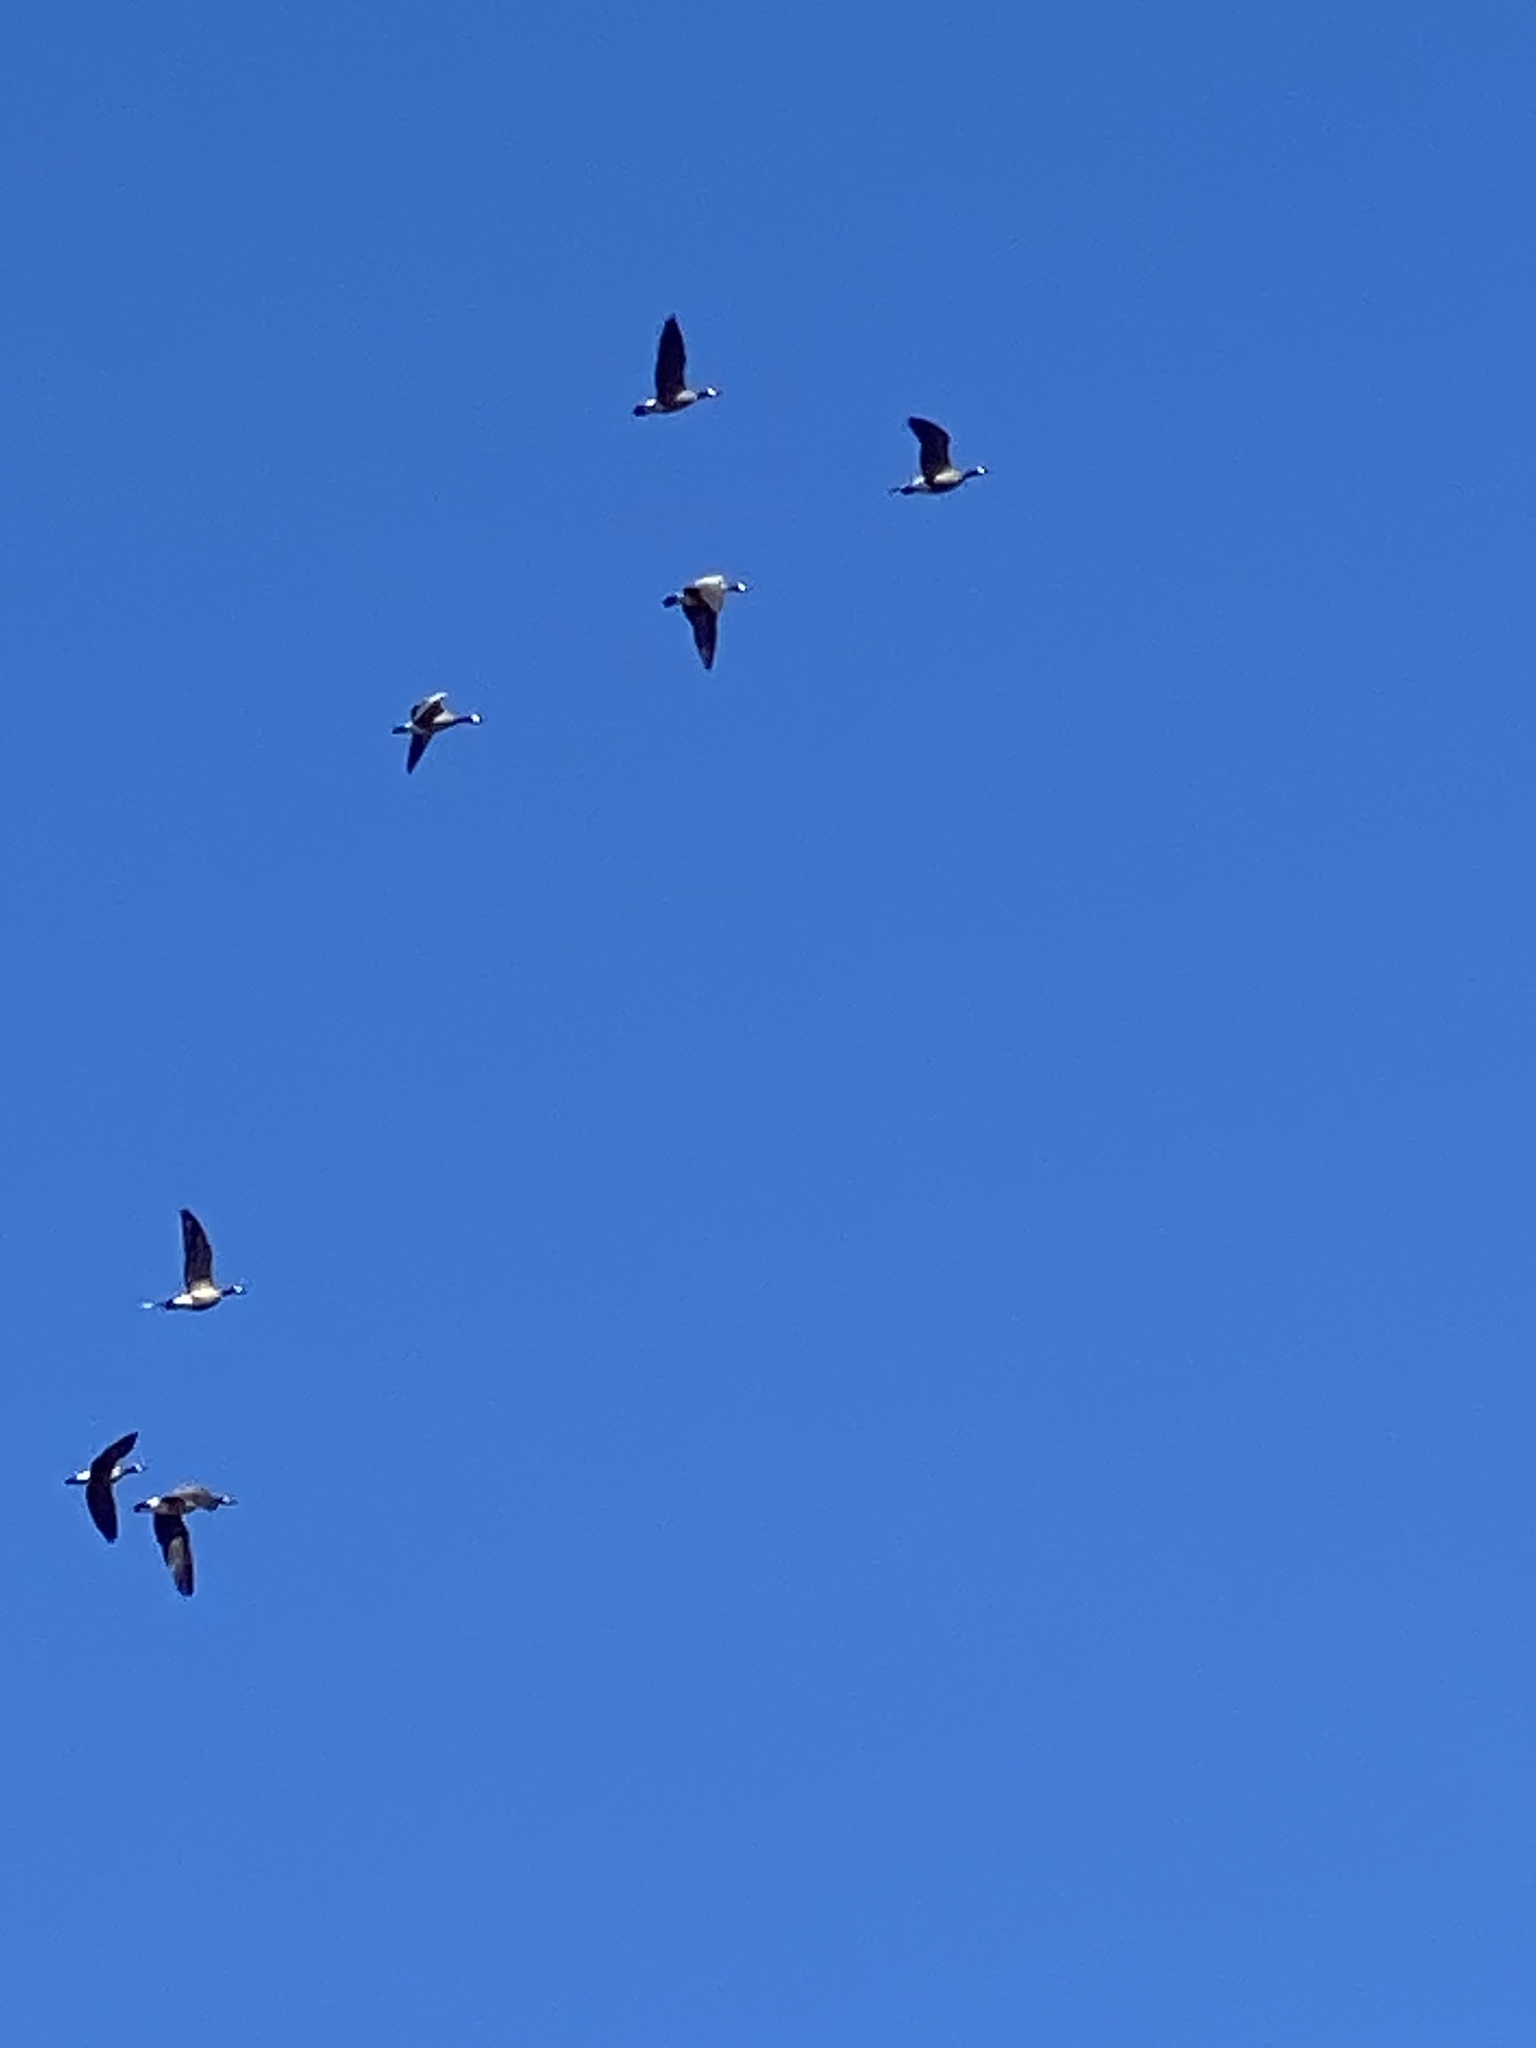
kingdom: Animalia
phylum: Chordata
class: Aves
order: Anseriformes
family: Anatidae
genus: Branta
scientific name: Branta hutchinsii
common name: Cackling goose
